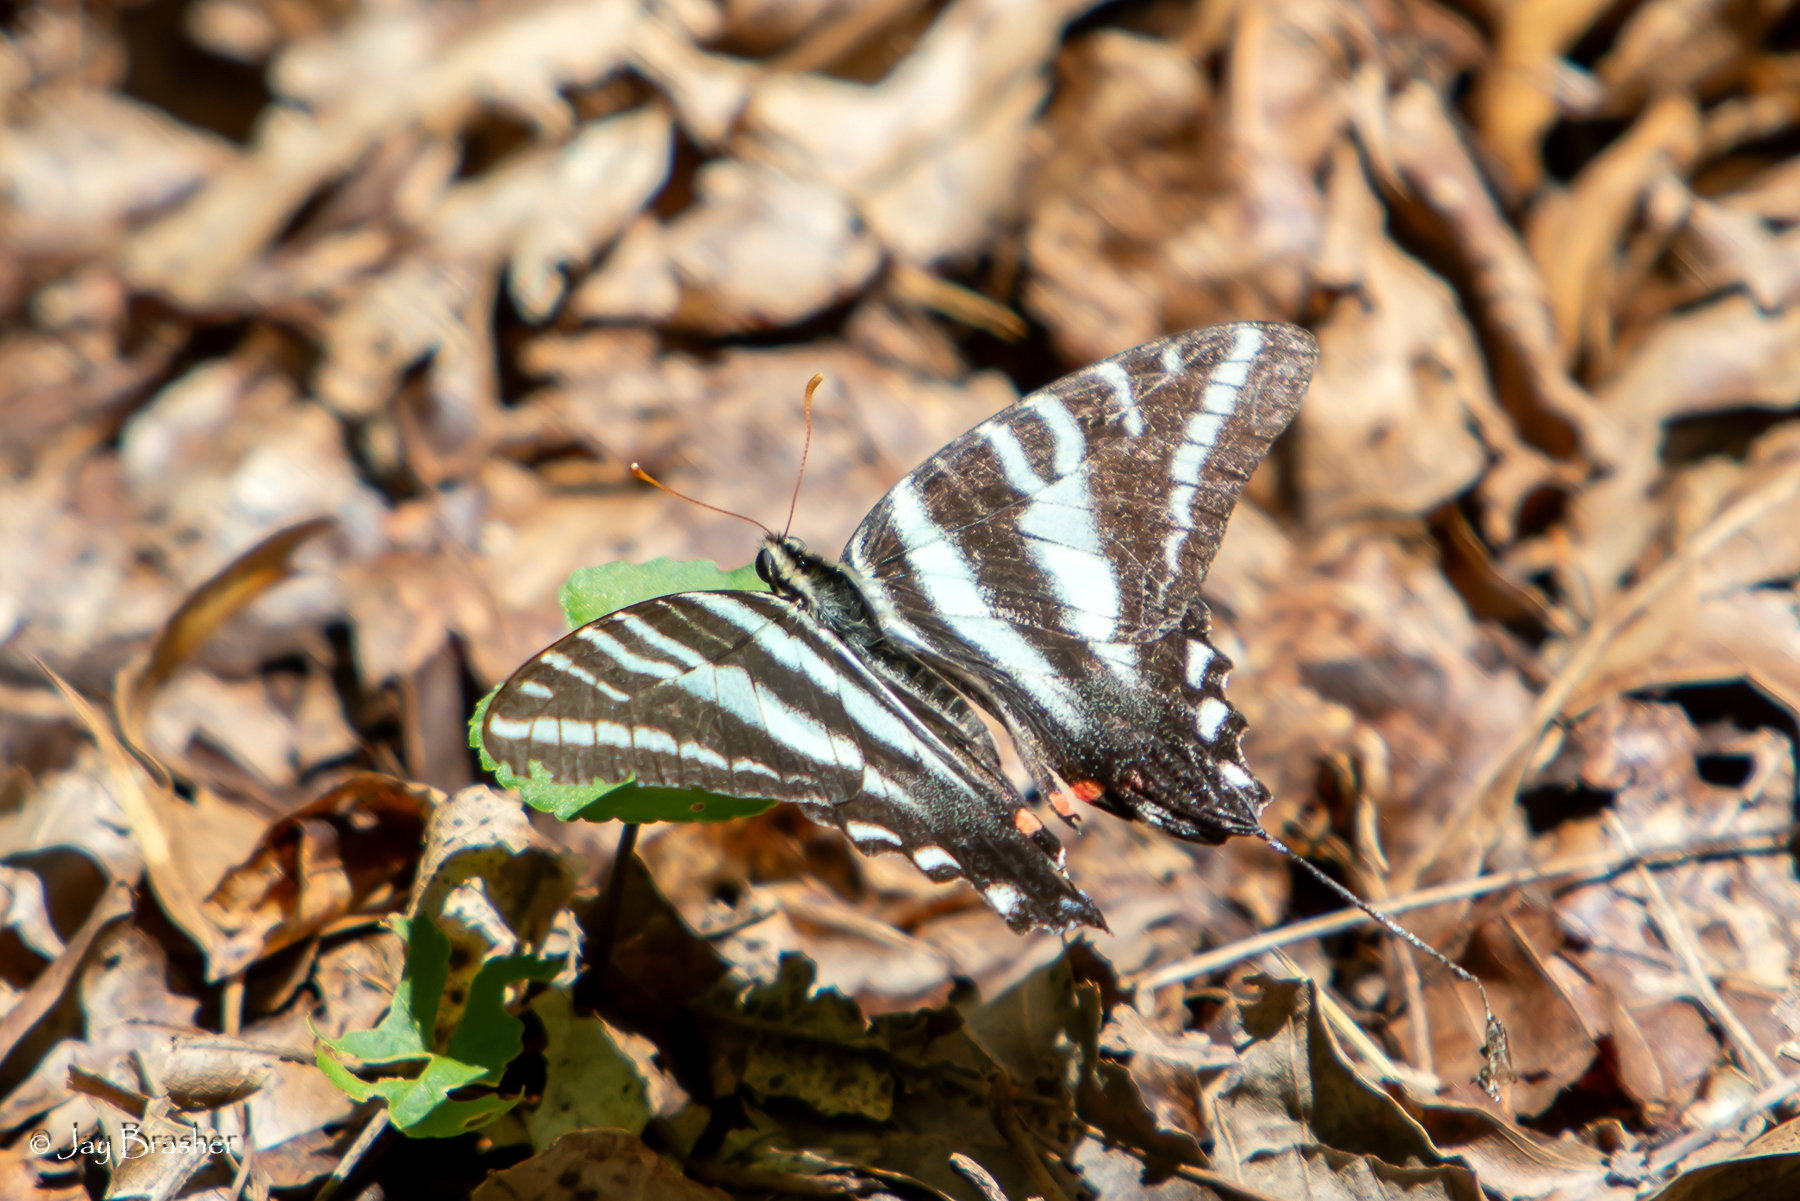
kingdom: Animalia
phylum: Arthropoda
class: Insecta
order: Lepidoptera
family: Papilionidae
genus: Protographium
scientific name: Protographium marcellus
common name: Zebra swallowtail
